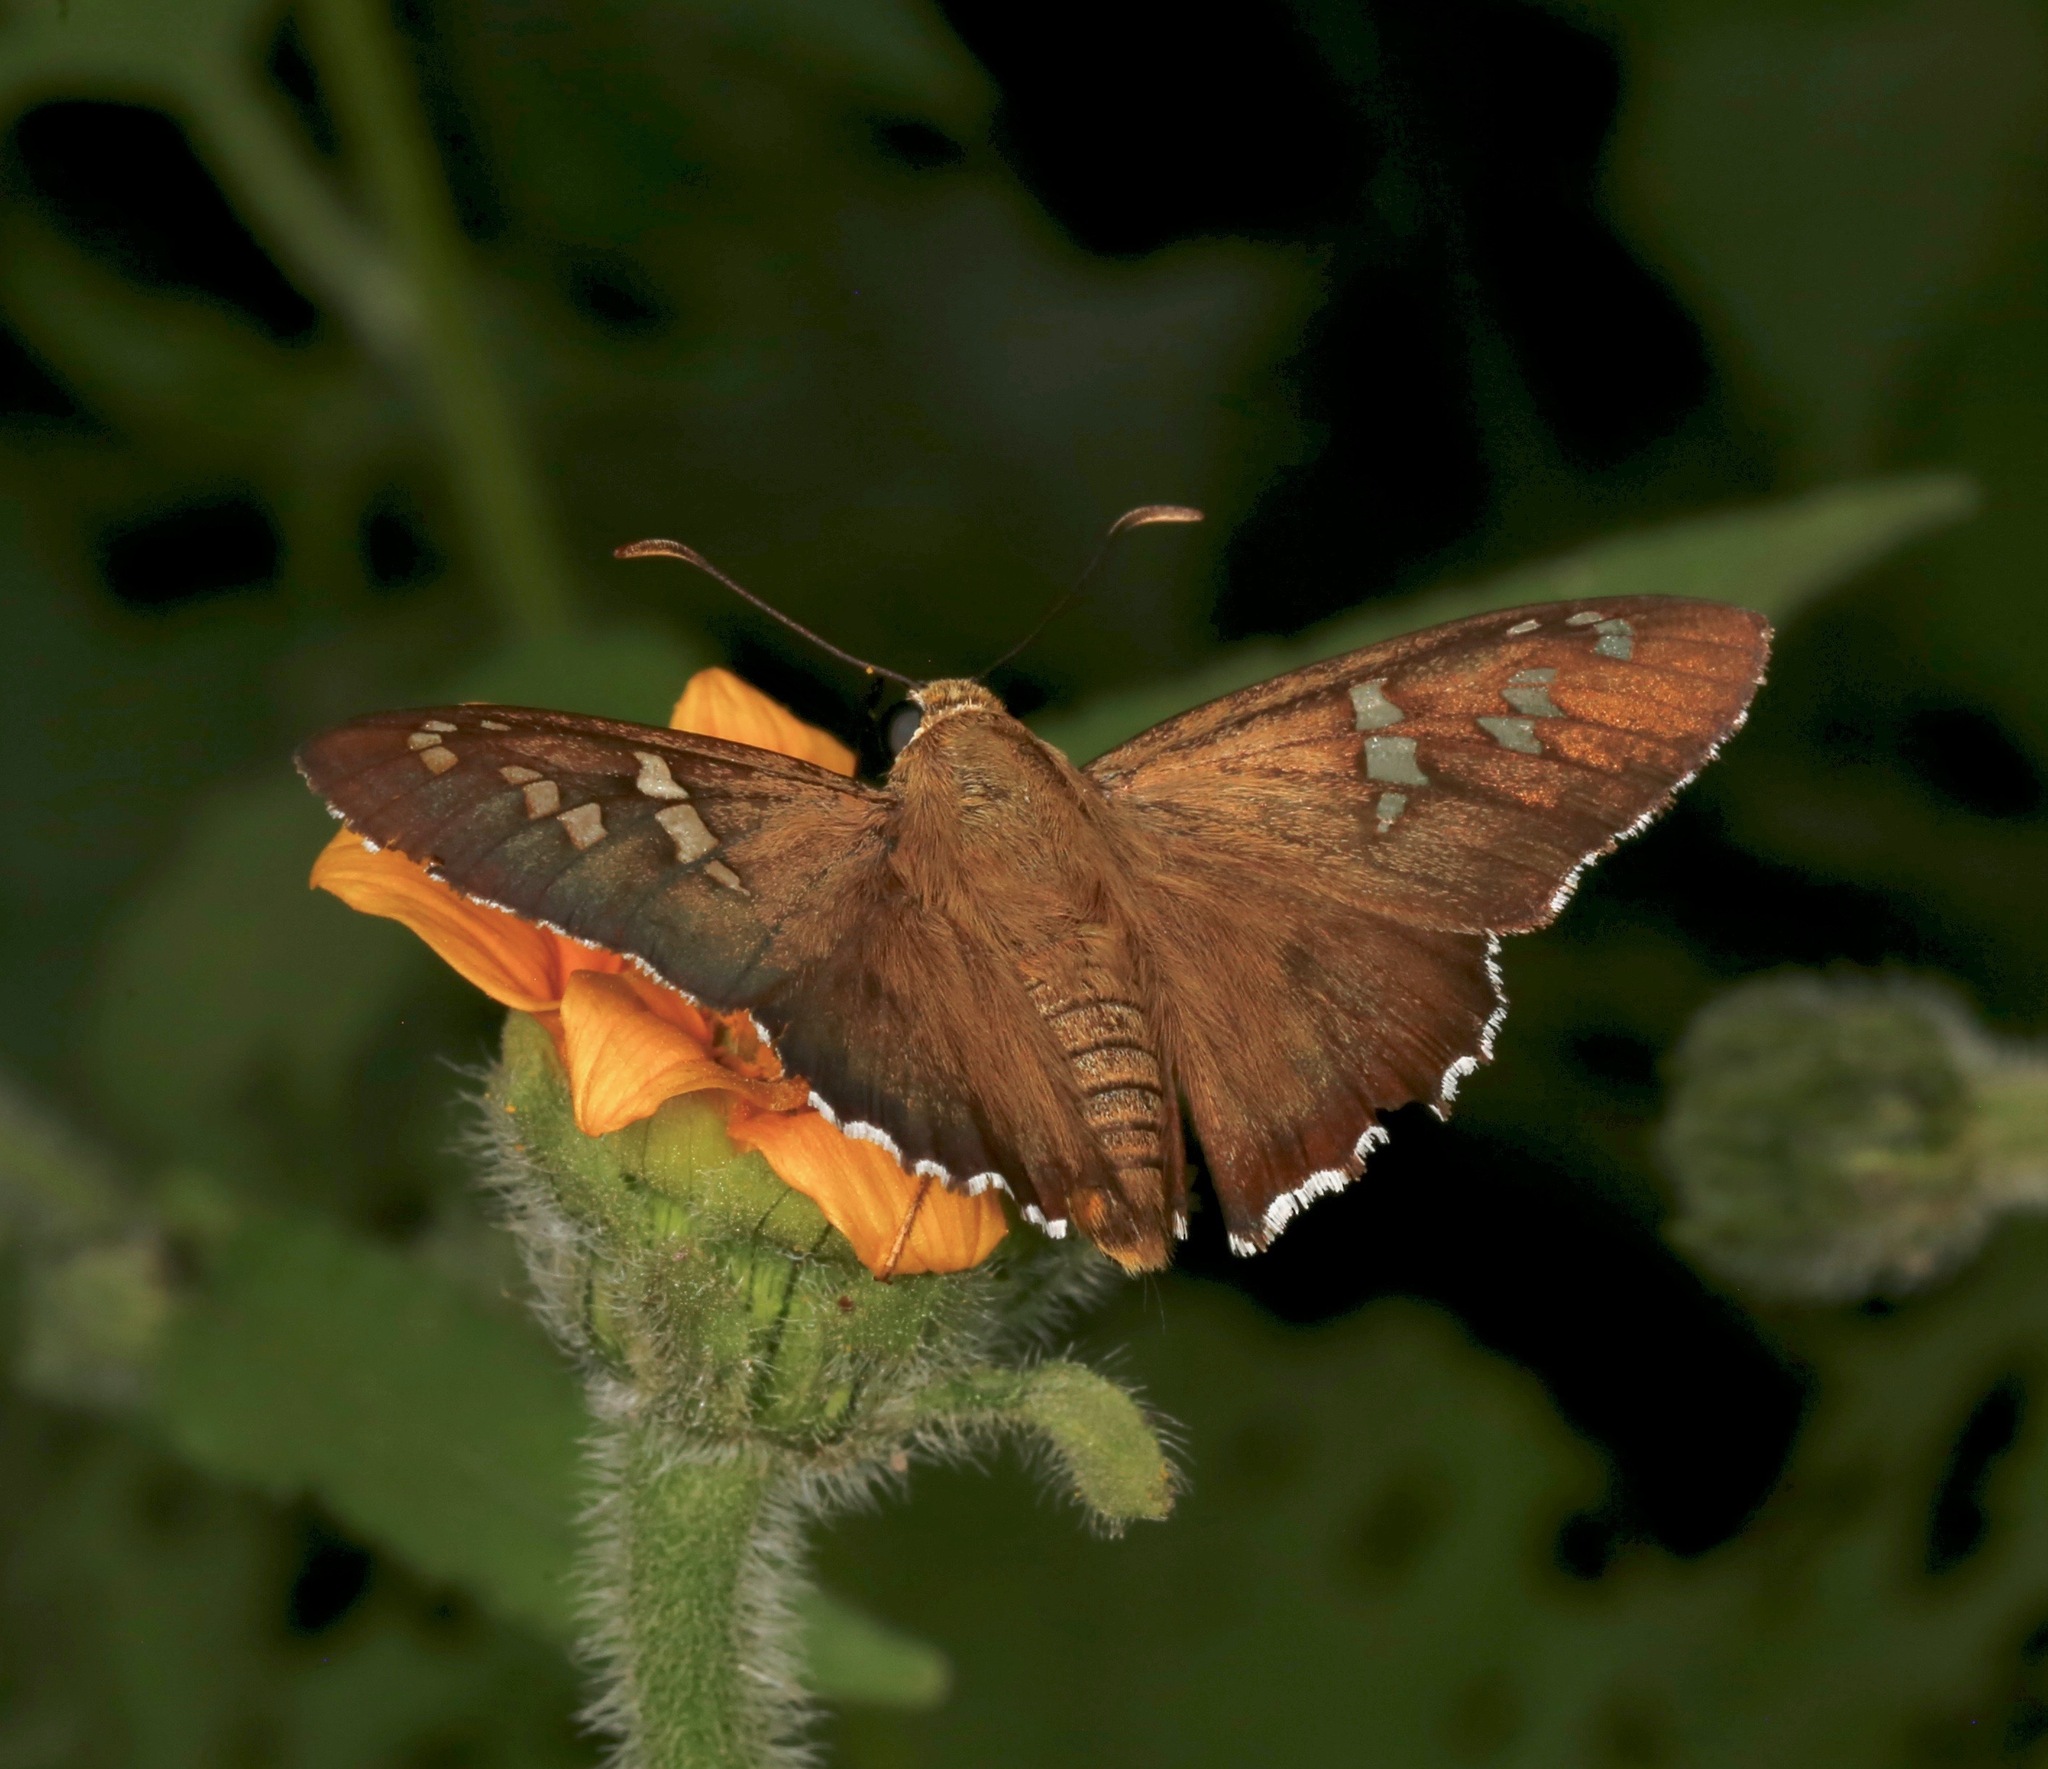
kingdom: Animalia
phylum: Arthropoda
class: Insecta
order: Lepidoptera
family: Hesperiidae
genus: Pyrrhopyge
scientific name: Pyrrhopyge araxes
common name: Dull firetip
